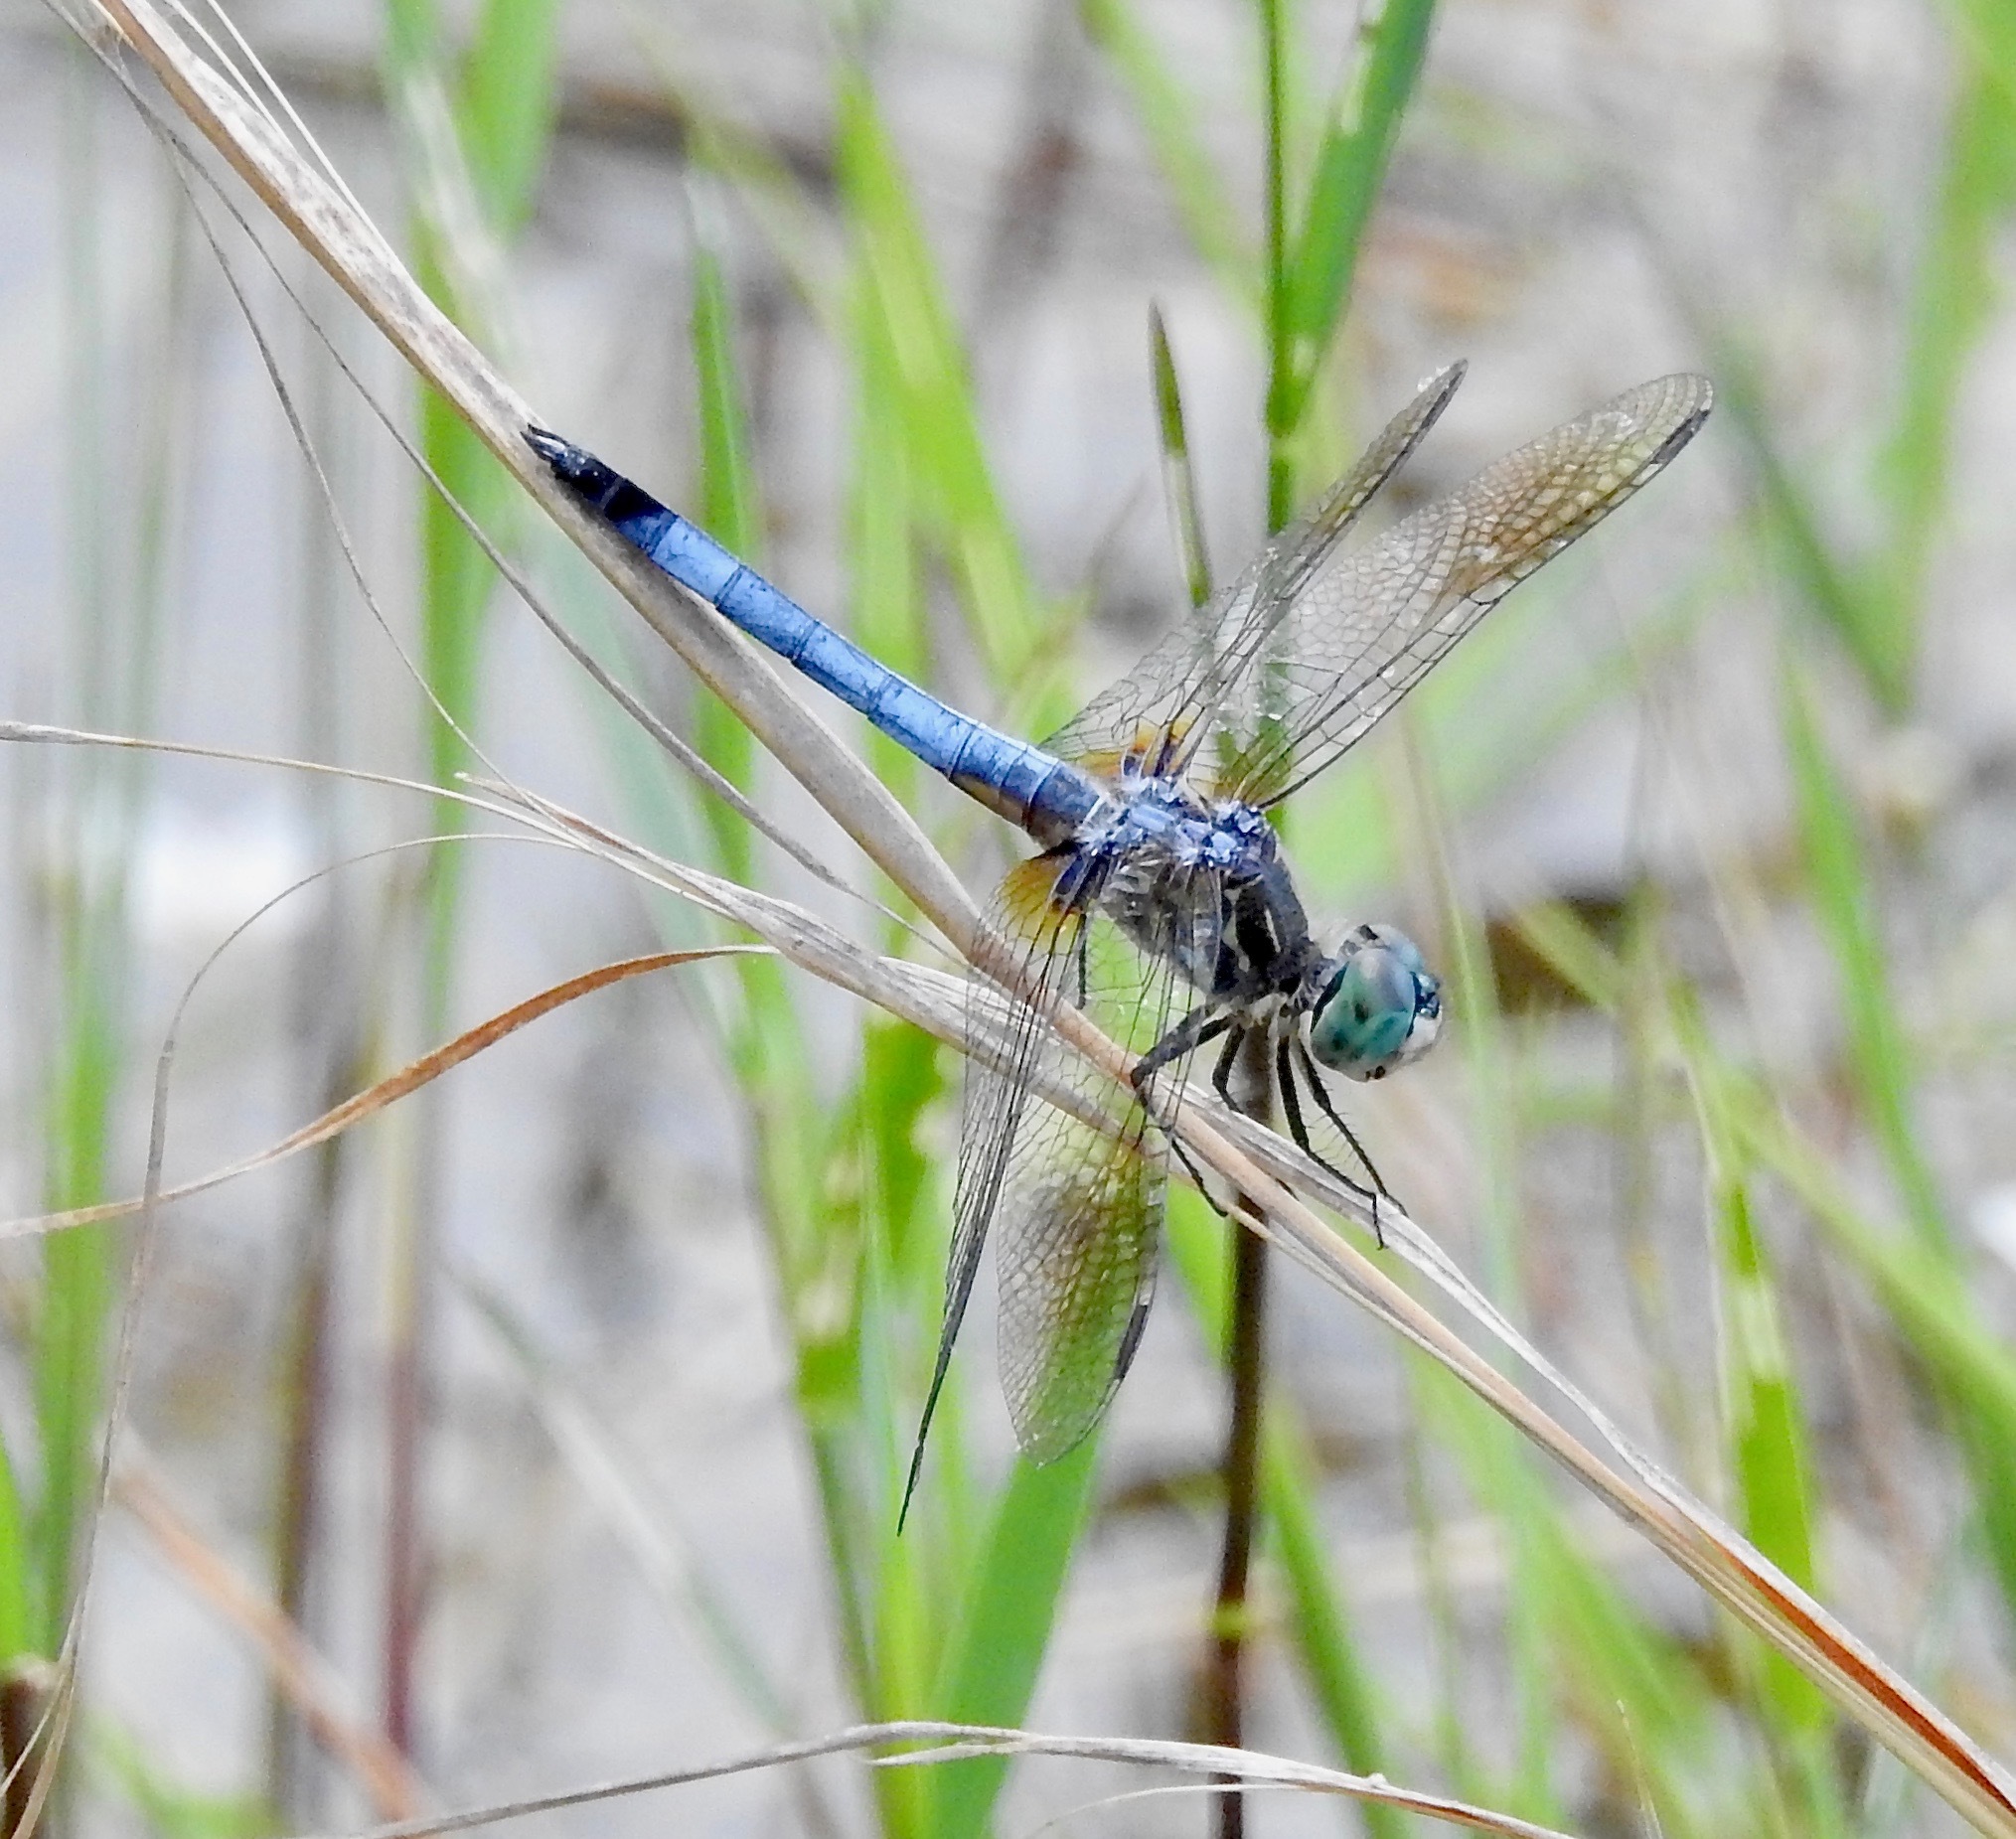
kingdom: Animalia
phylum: Arthropoda
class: Insecta
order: Odonata
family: Libellulidae
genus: Pachydiplax
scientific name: Pachydiplax longipennis
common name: Blue dasher
